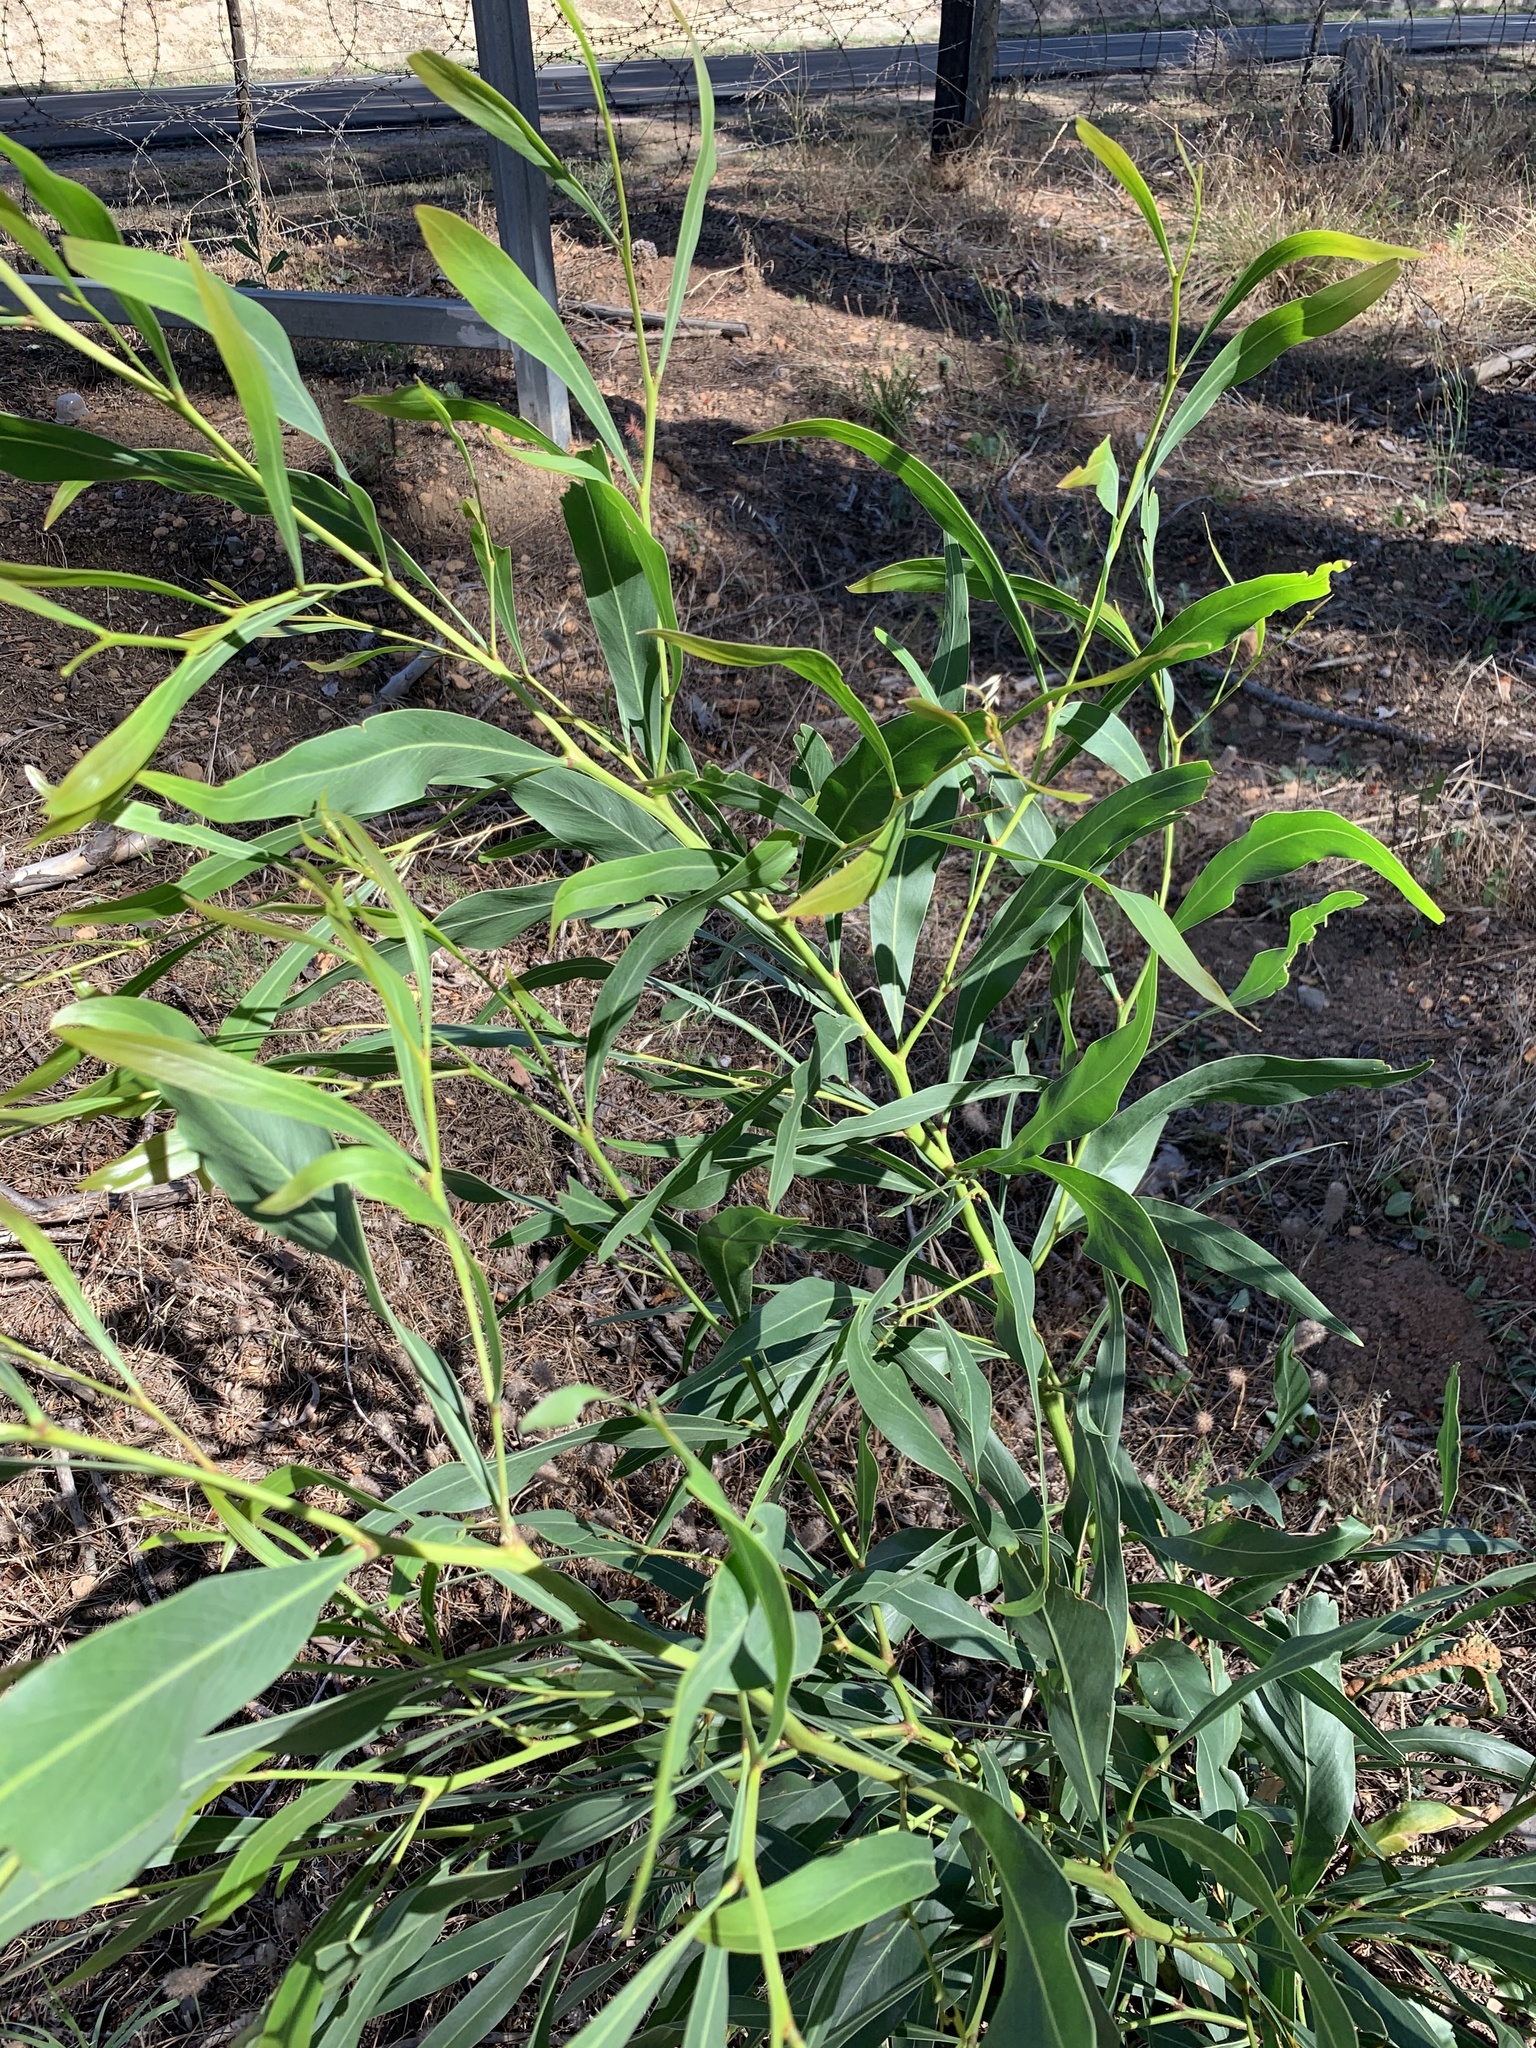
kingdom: Plantae
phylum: Tracheophyta
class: Magnoliopsida
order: Fabales
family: Fabaceae
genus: Acacia
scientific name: Acacia saligna
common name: Orange wattle
